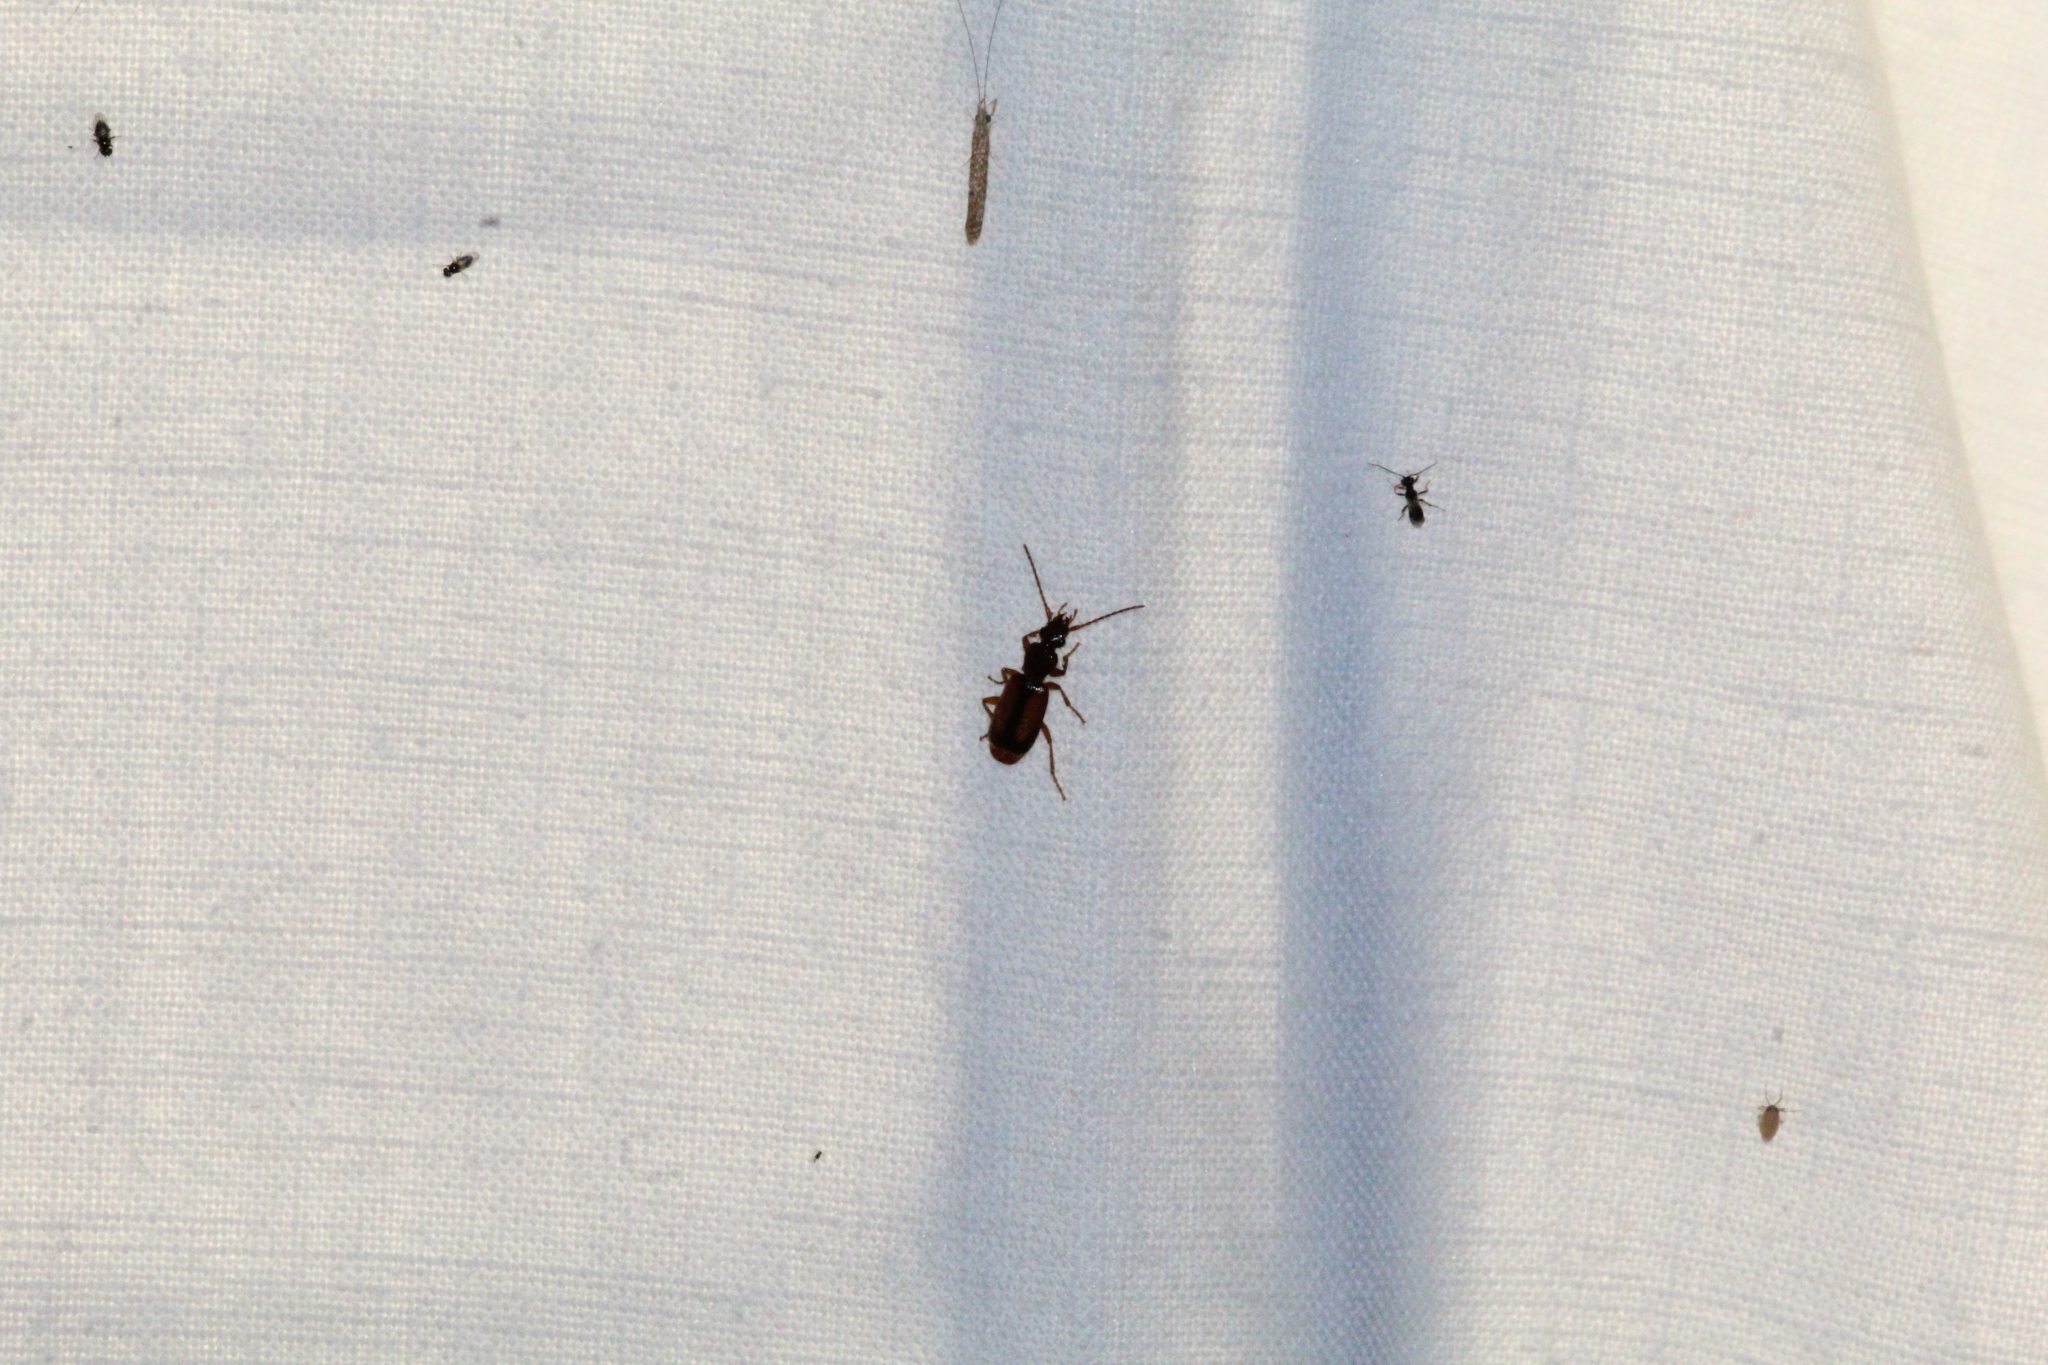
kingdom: Animalia
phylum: Arthropoda
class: Insecta
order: Coleoptera
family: Carabidae
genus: Polistichus
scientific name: Polistichus connexus
